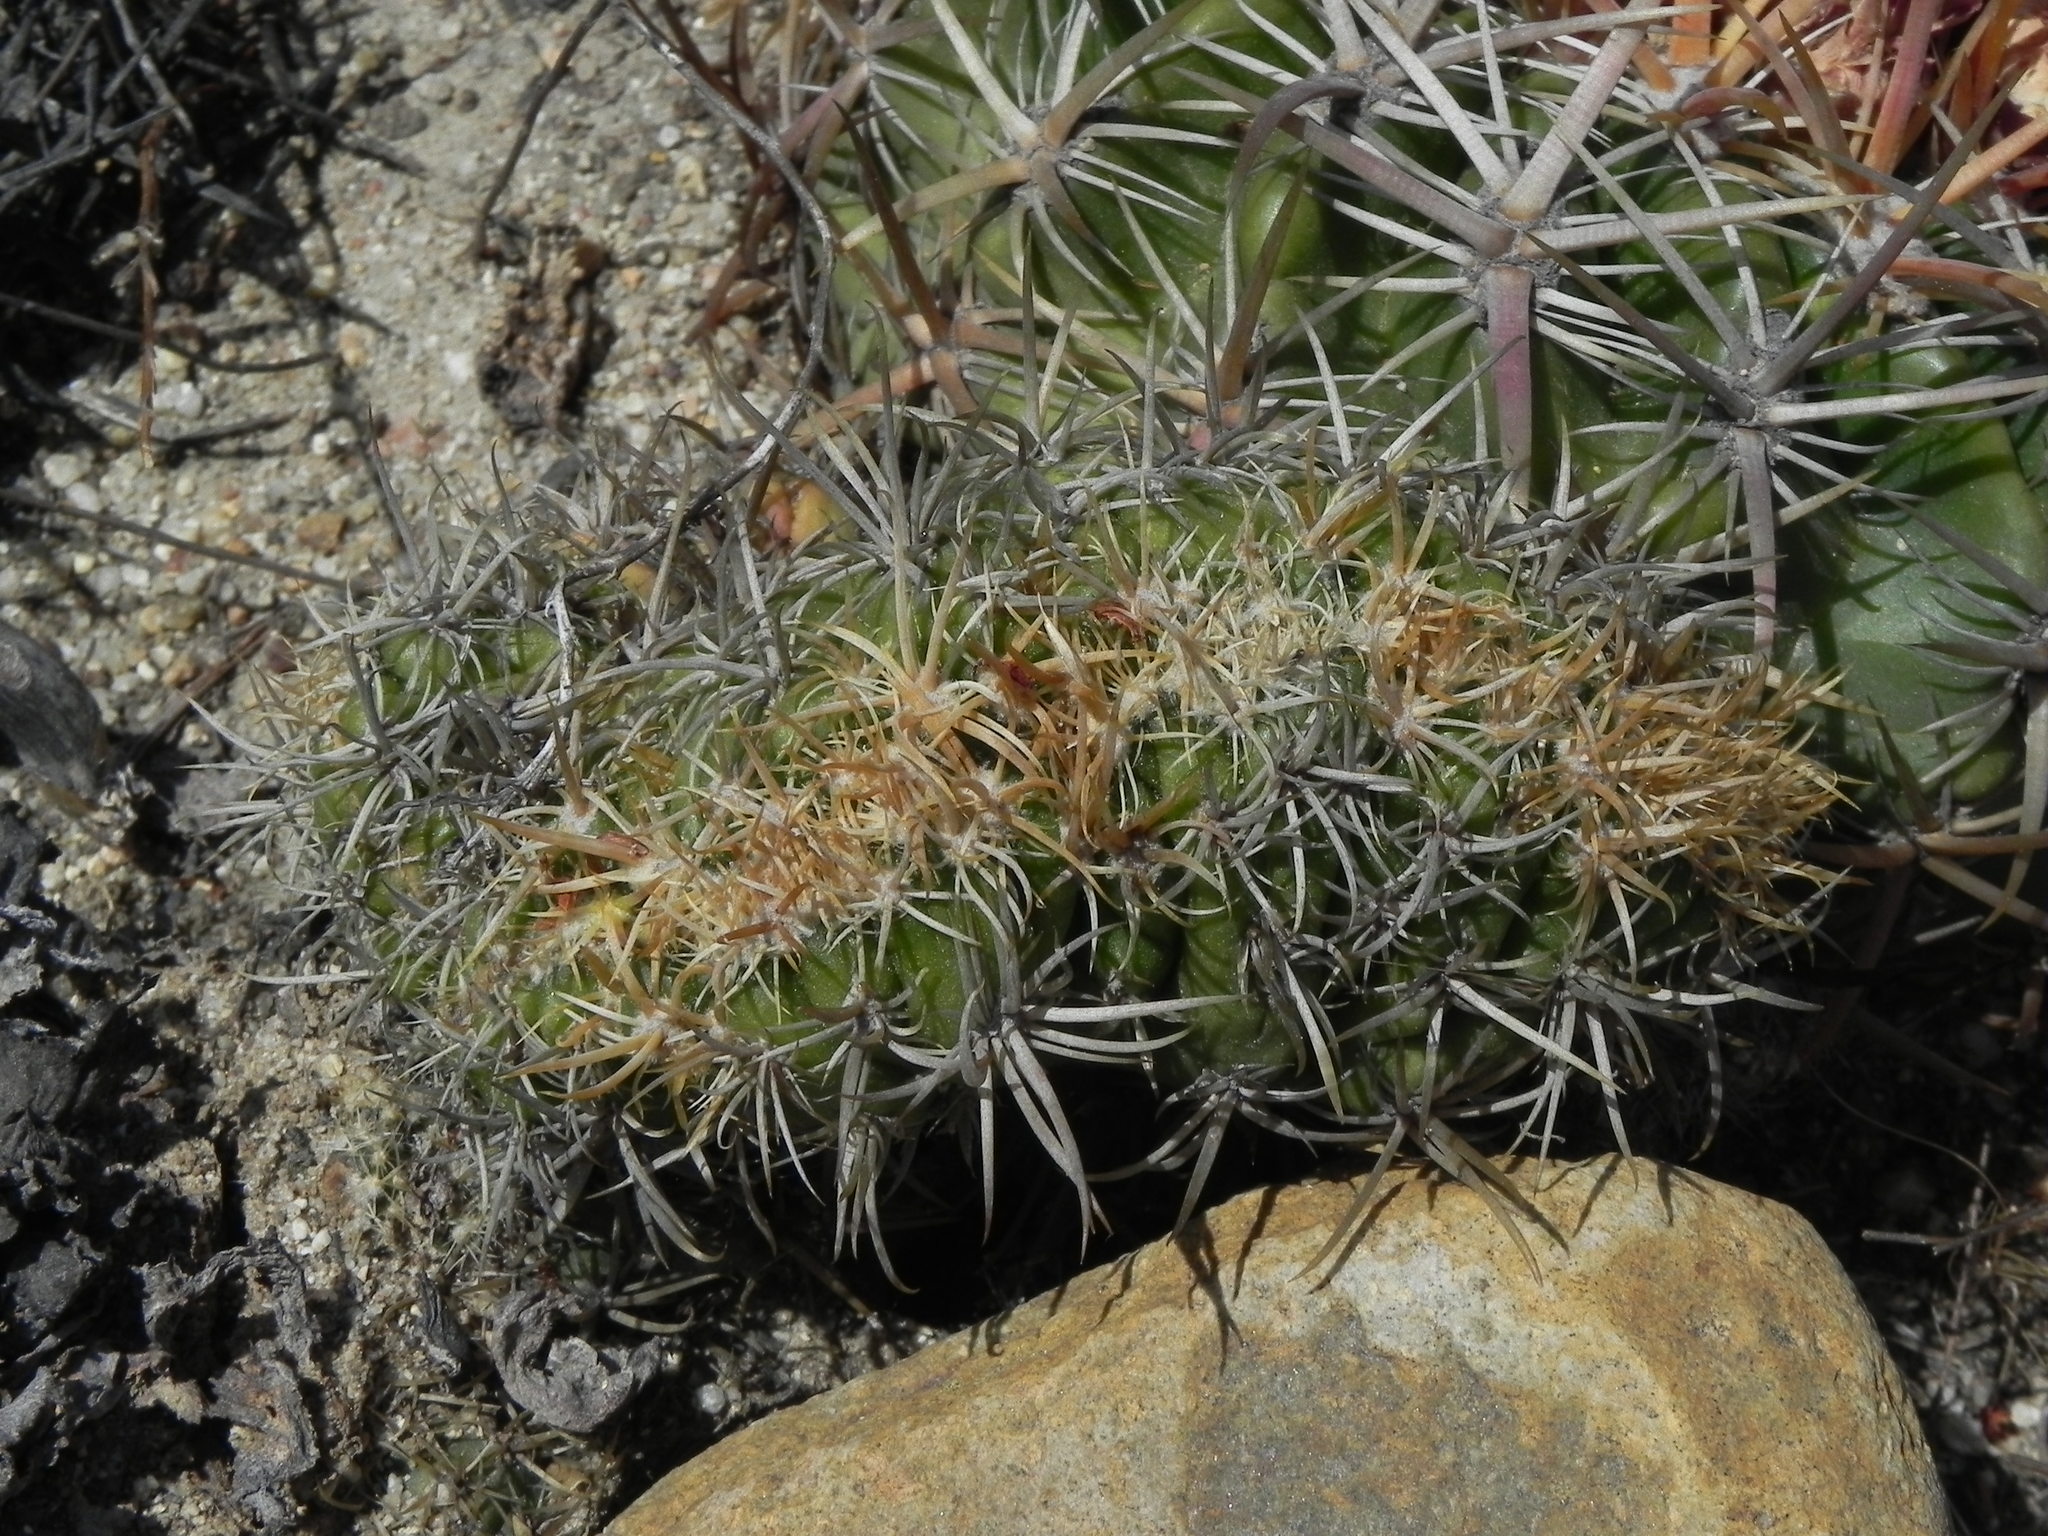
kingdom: Plantae
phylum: Tracheophyta
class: Magnoliopsida
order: Caryophyllales
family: Cactaceae
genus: Ferocactus
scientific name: Ferocactus viridescens
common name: San diego barrel cactus
